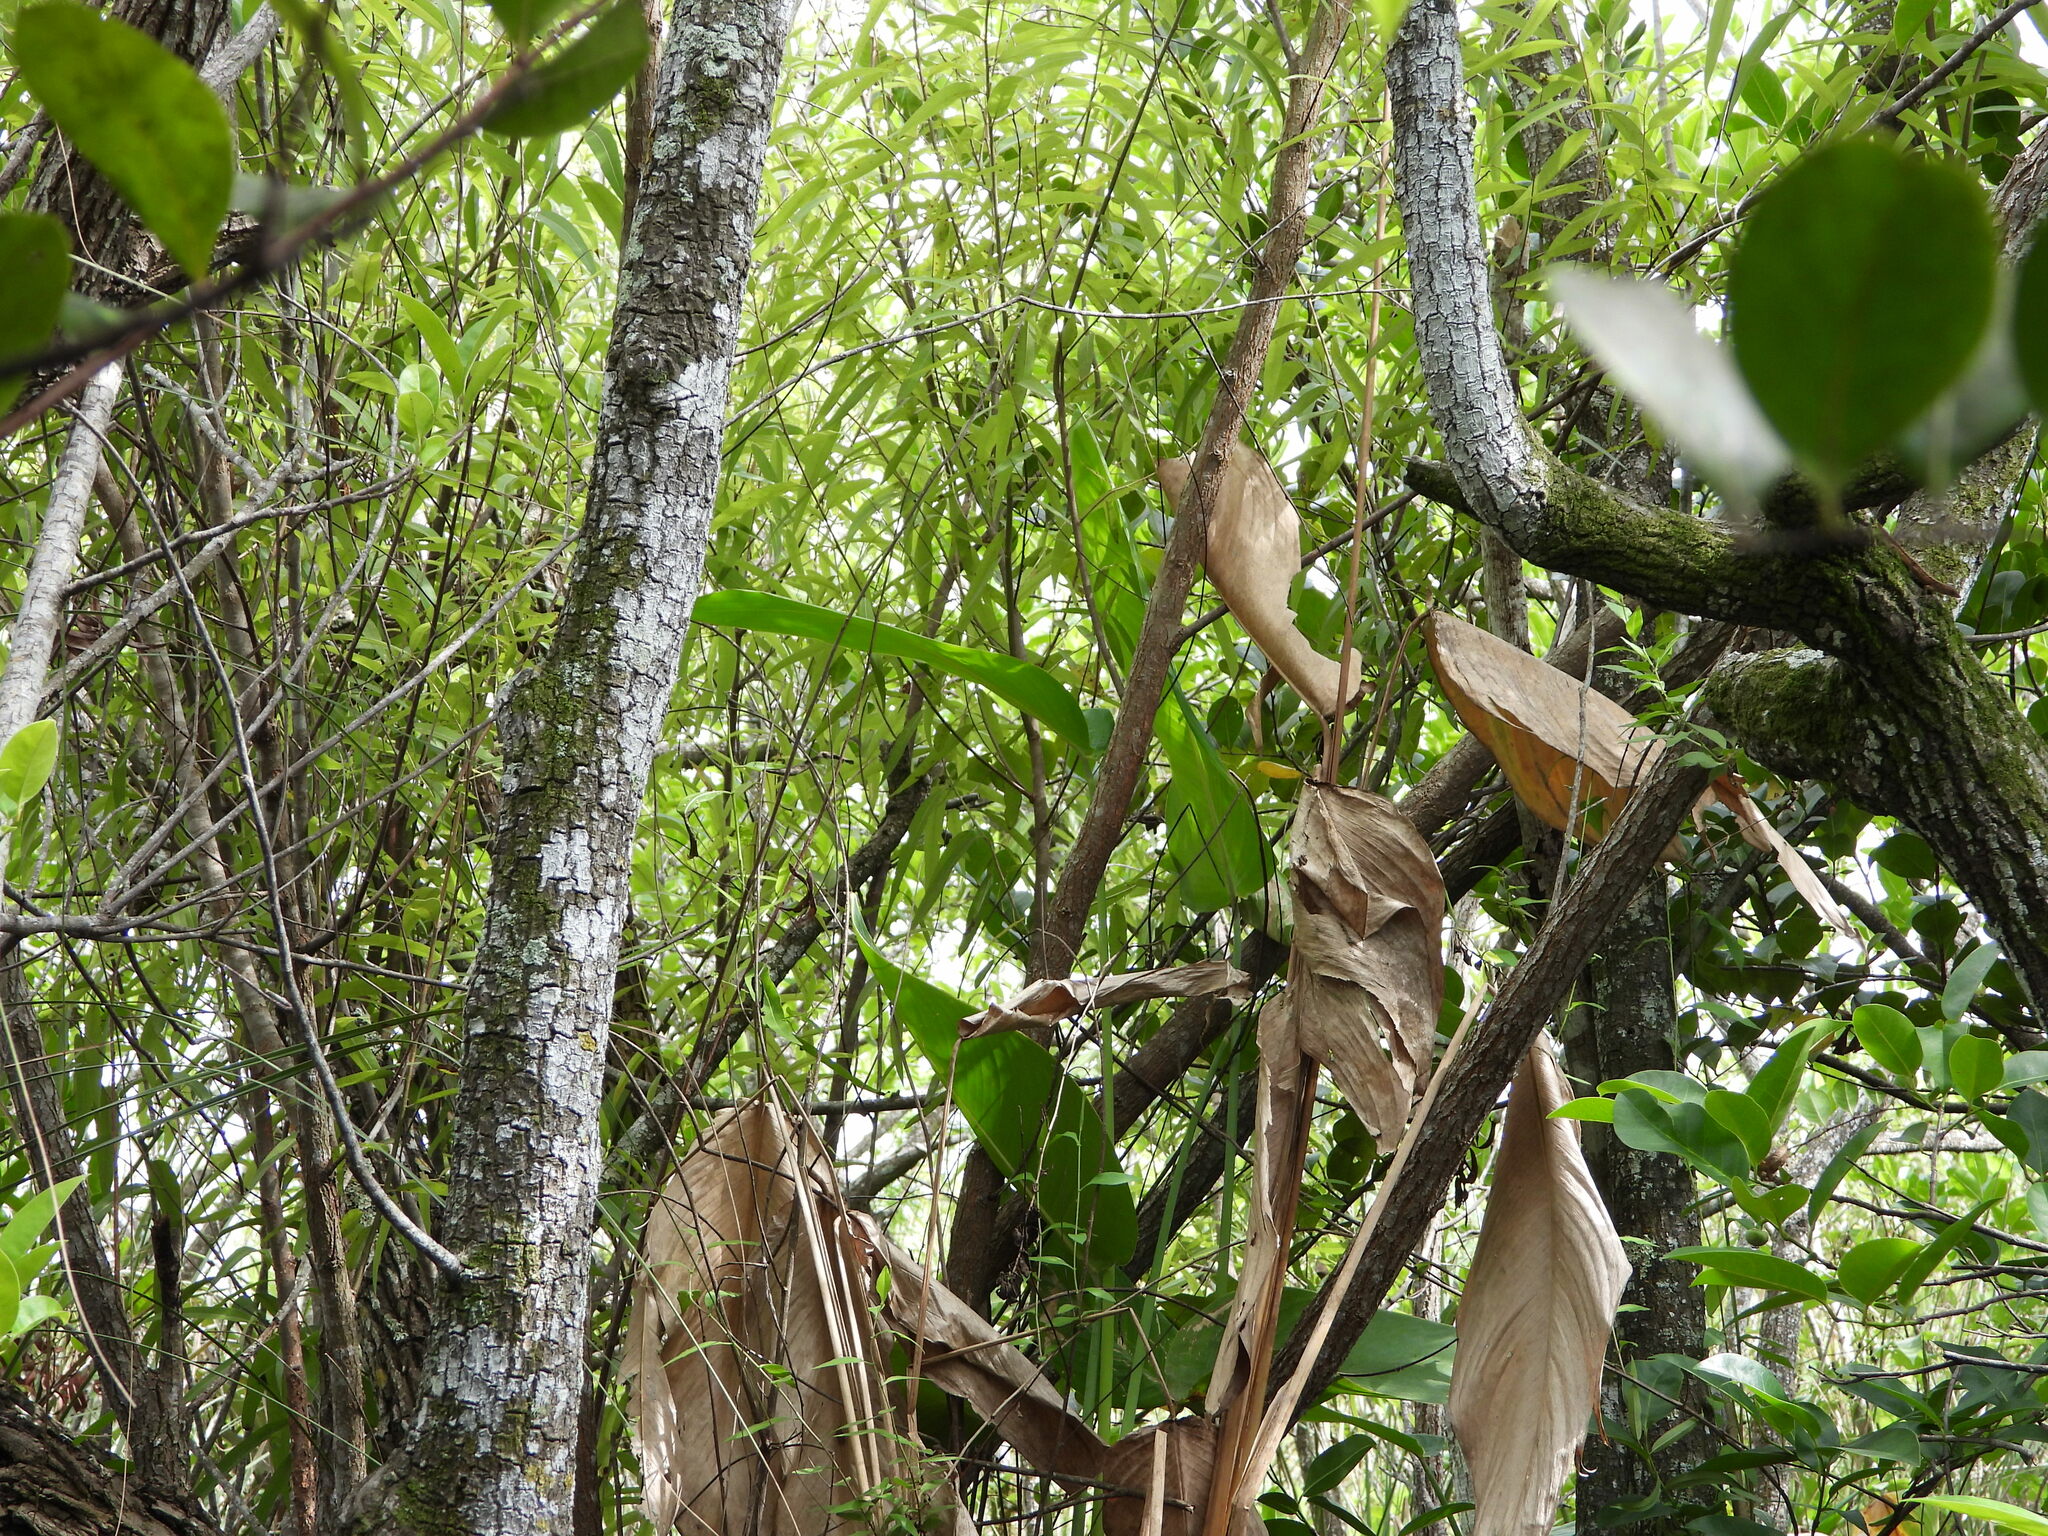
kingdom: Plantae
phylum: Tracheophyta
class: Liliopsida
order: Zingiberales
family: Marantaceae
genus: Thalia
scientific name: Thalia geniculata
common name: Arrowroot
